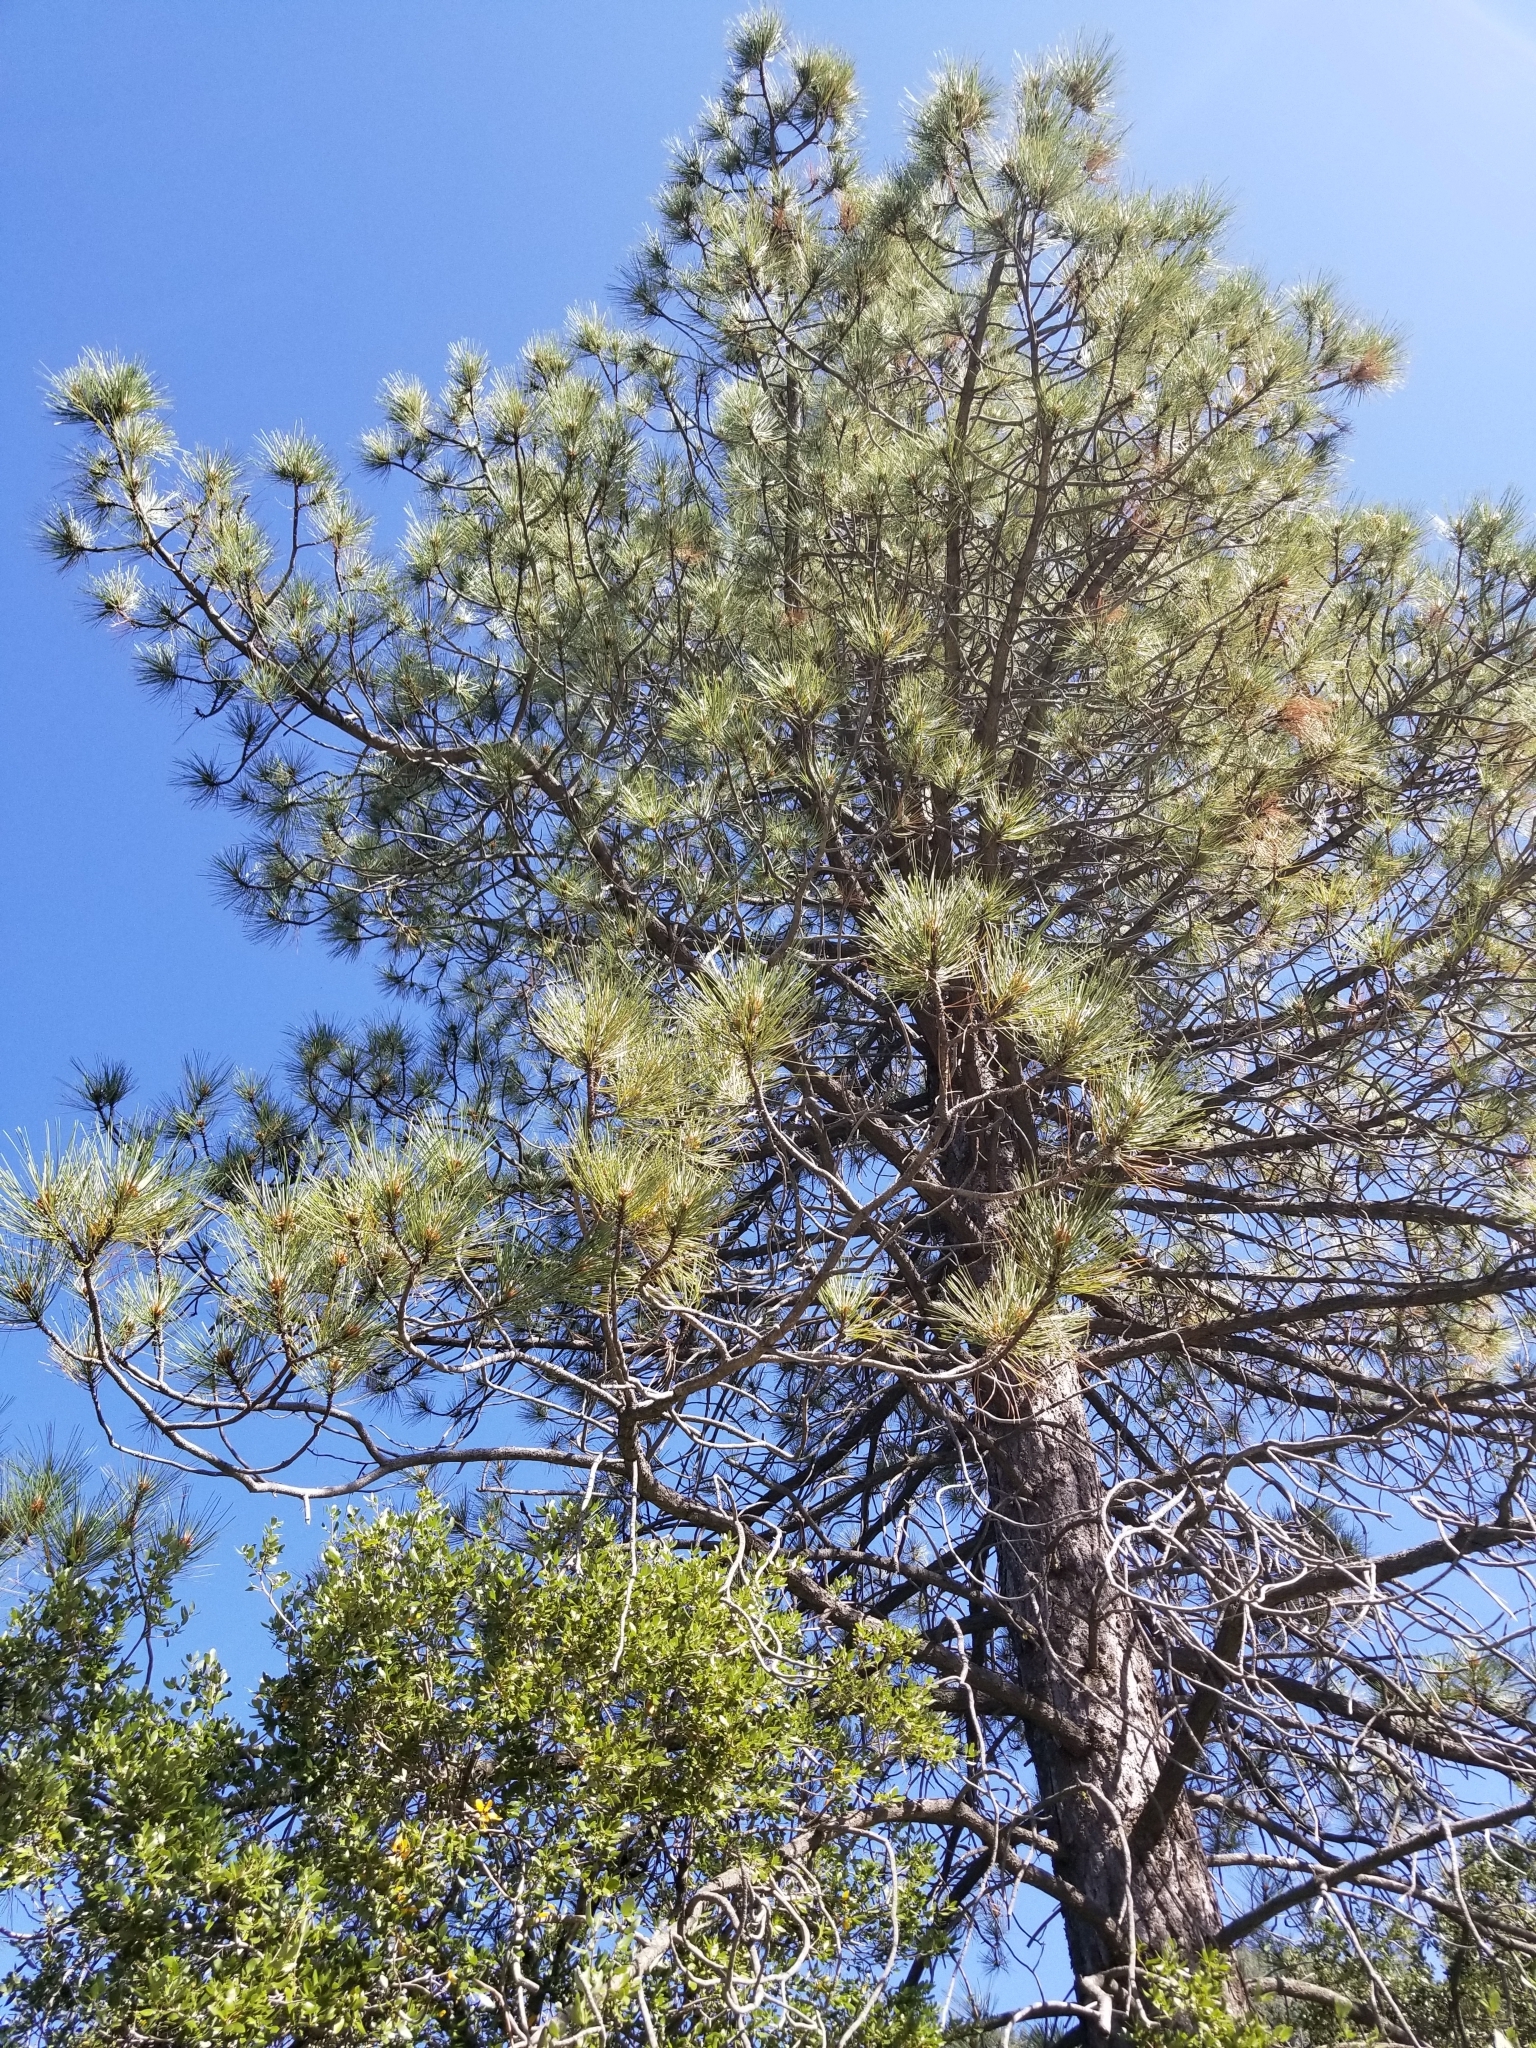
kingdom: Plantae
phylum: Tracheophyta
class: Pinopsida
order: Pinales
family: Pinaceae
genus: Pinus
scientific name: Pinus coulteri
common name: Coulter pine
